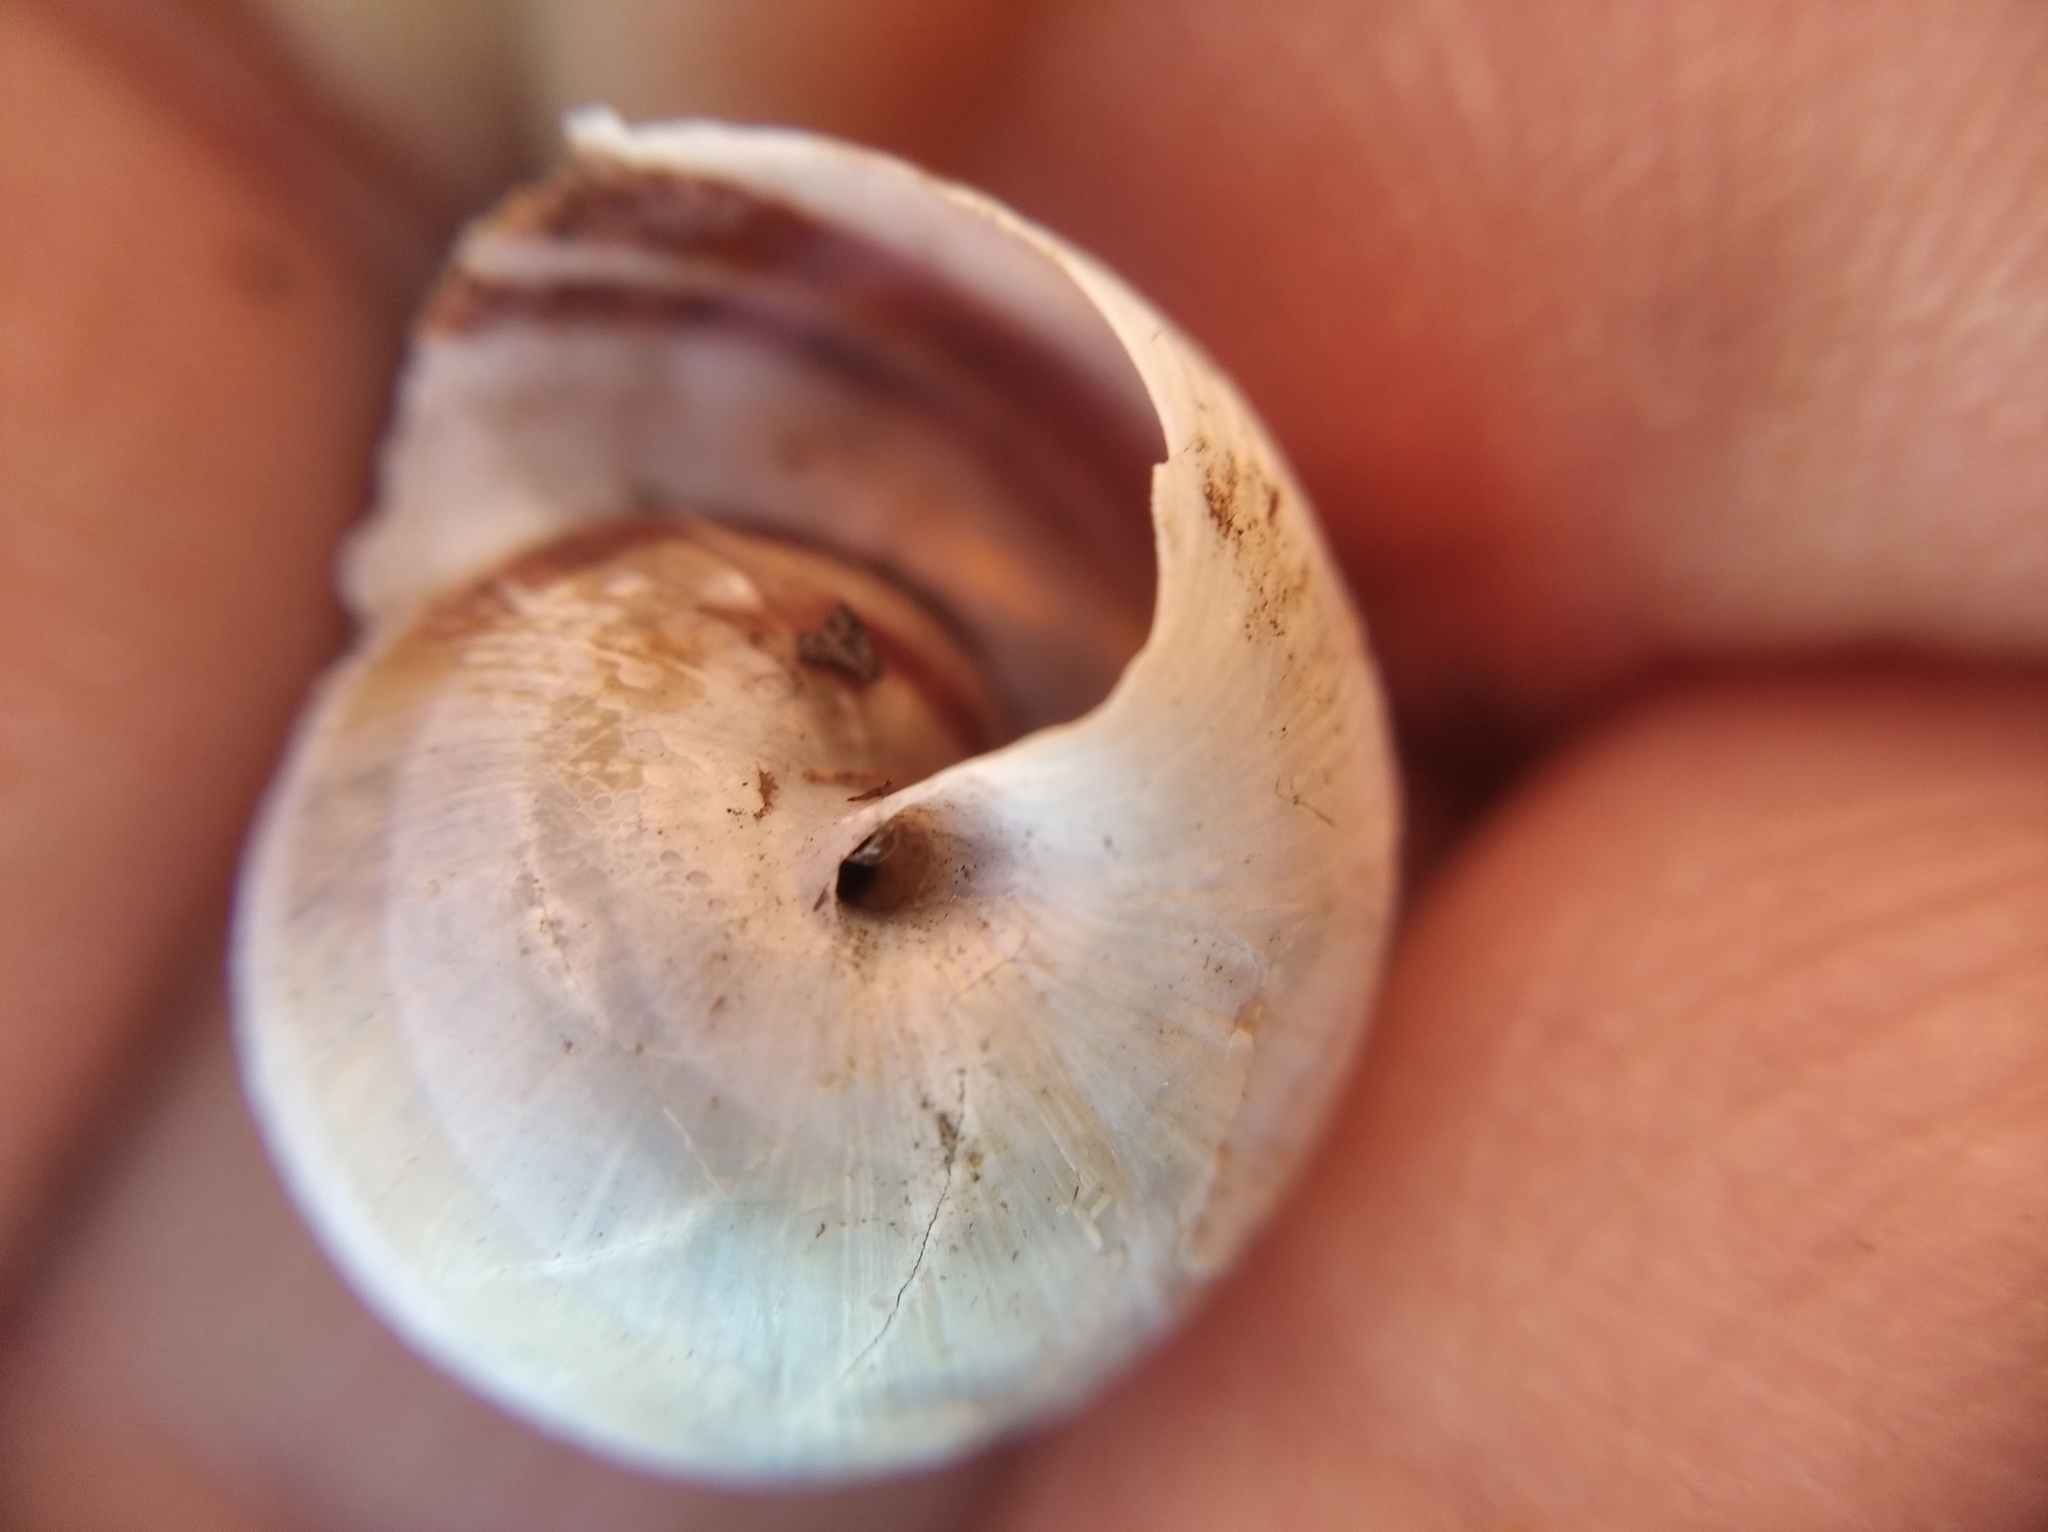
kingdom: Animalia
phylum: Mollusca
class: Gastropoda
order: Stylommatophora
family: Helicidae
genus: Caucasotachea
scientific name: Caucasotachea vindobonensis
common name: European helicid land snail
